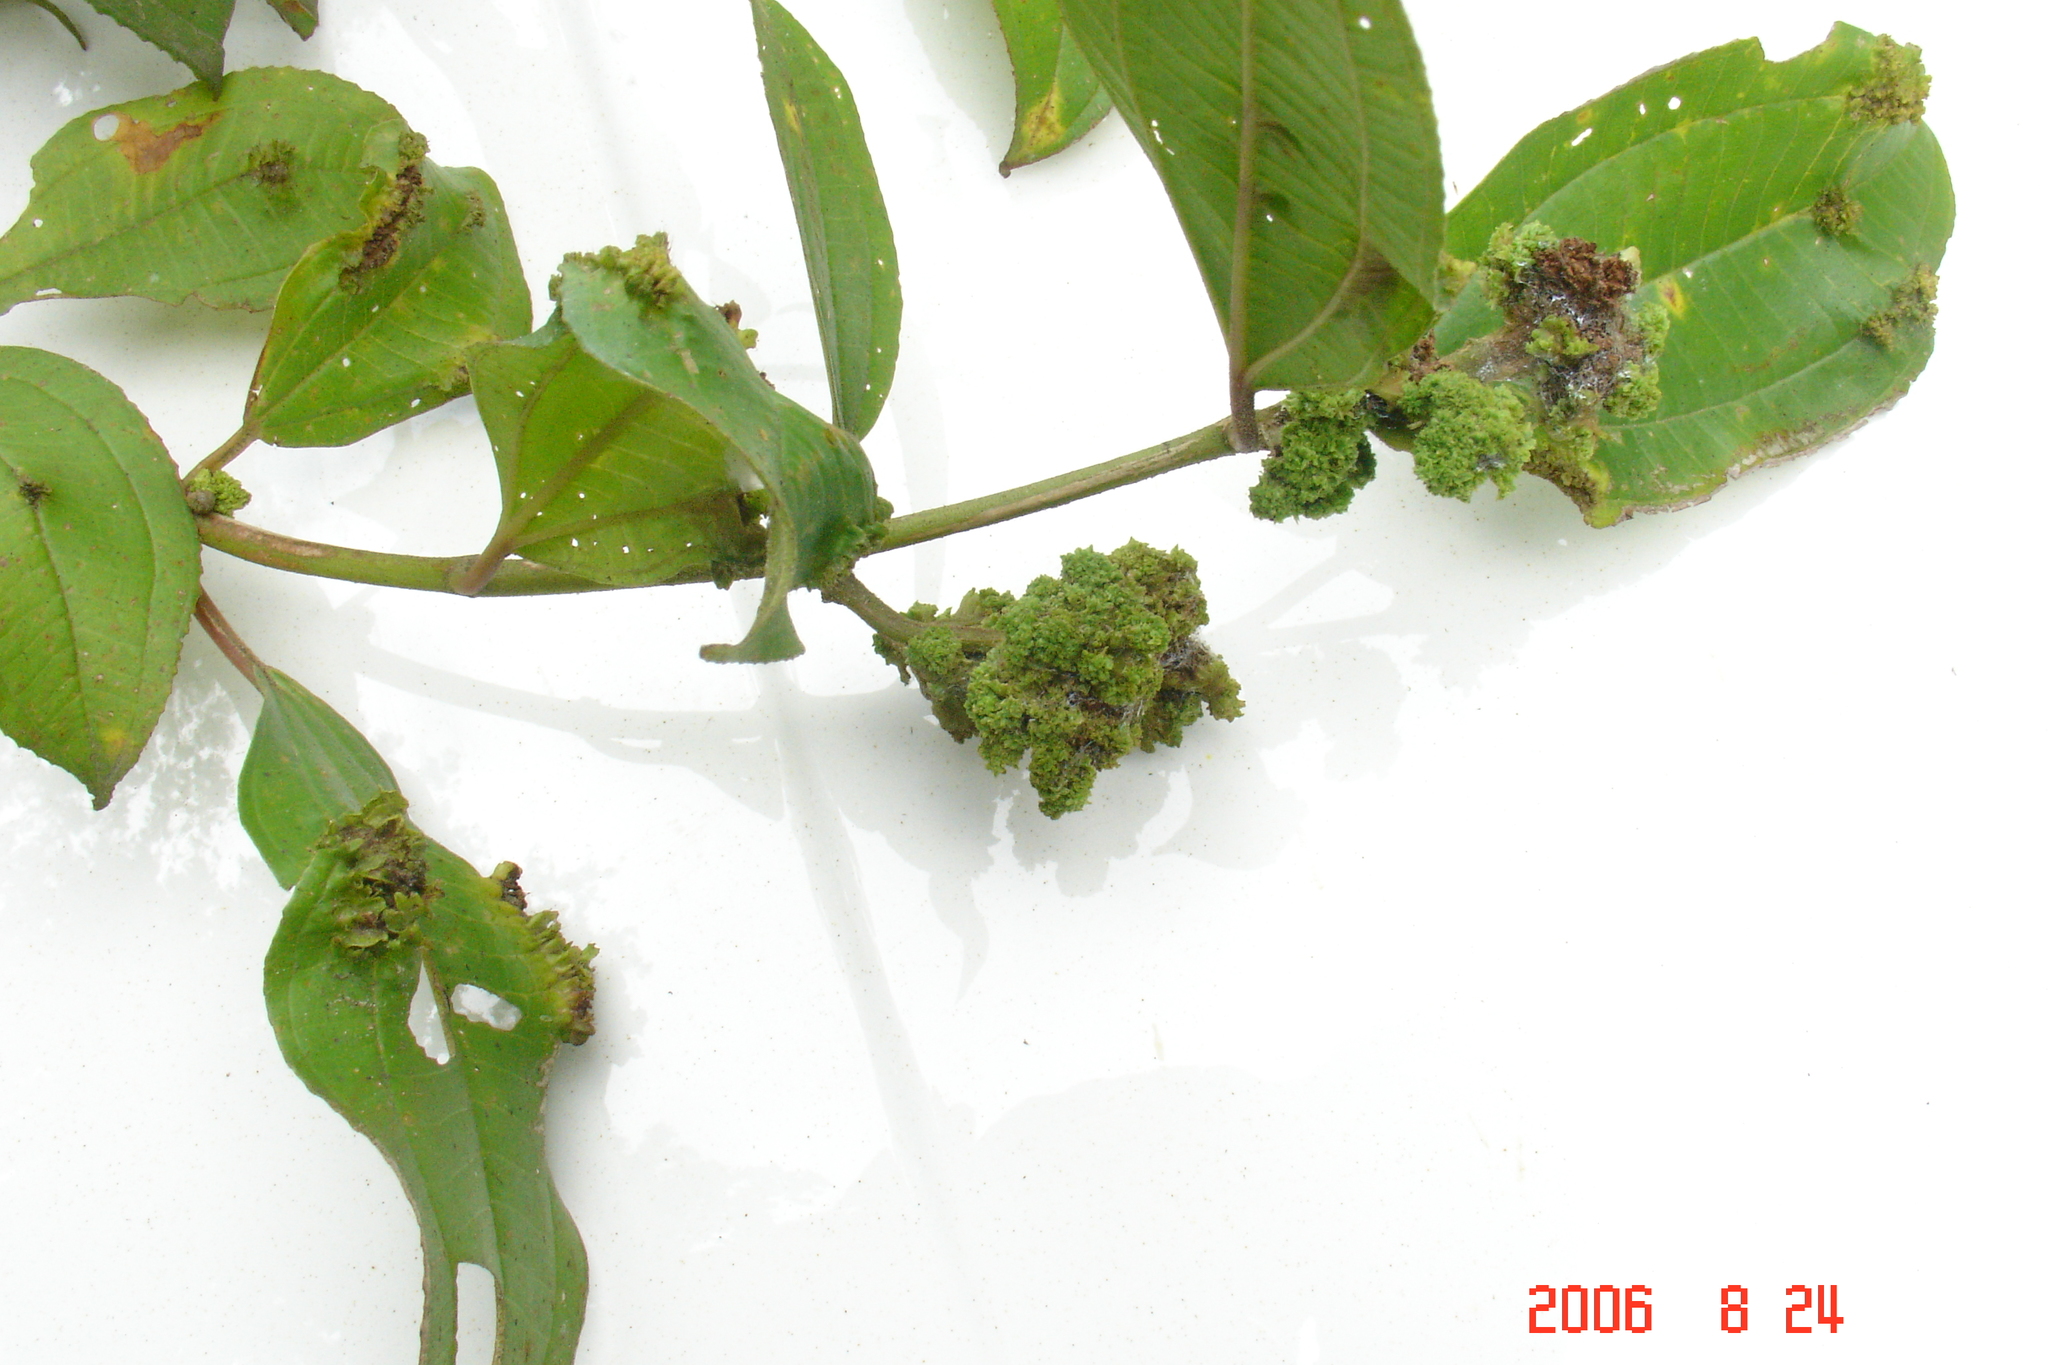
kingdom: Animalia
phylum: Nematoda
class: Chromadorea
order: Rhabditida
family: Anguinidae
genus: Ditylenchus
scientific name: Ditylenchus gallaeformans
